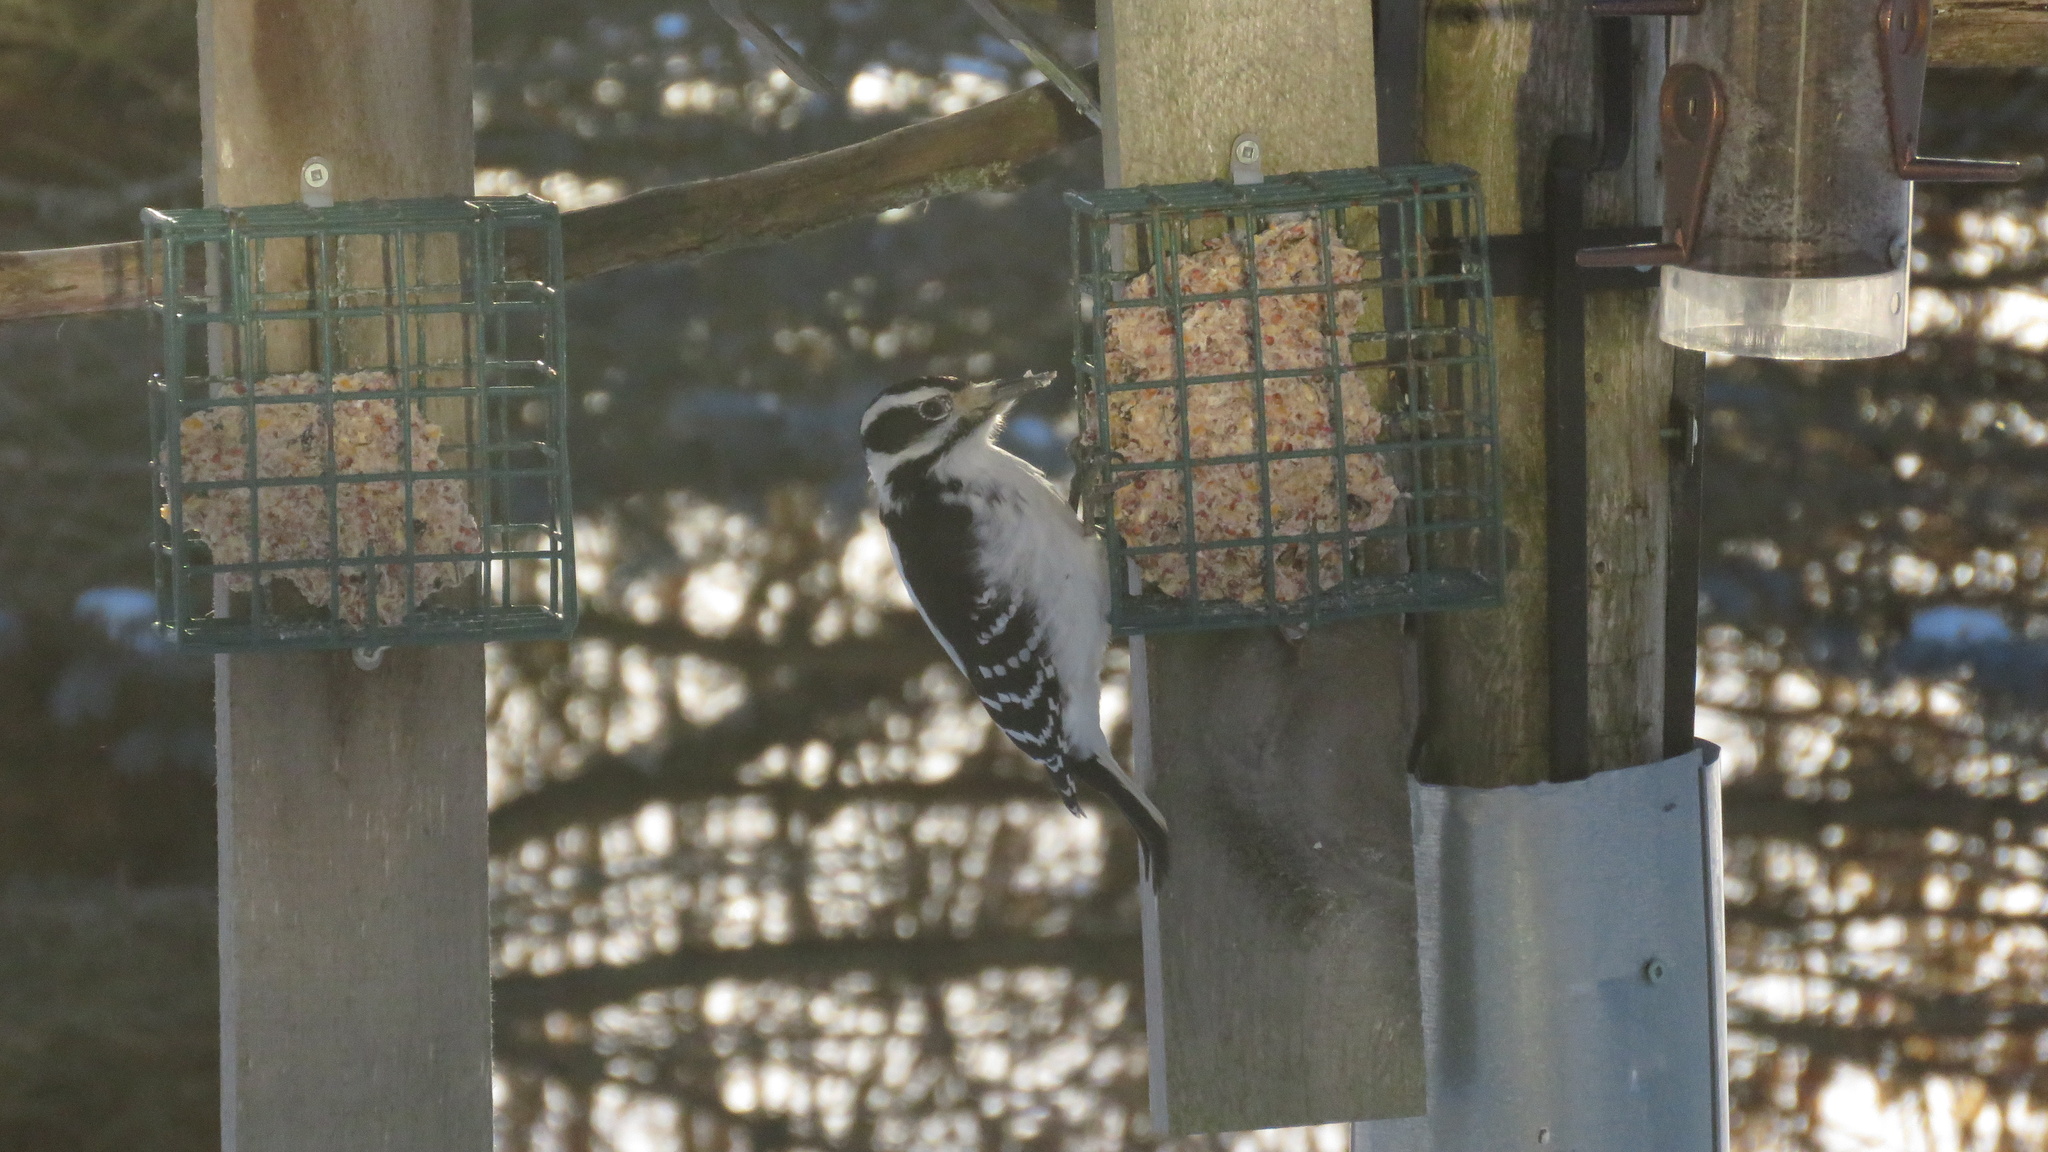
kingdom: Animalia
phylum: Chordata
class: Aves
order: Piciformes
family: Picidae
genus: Leuconotopicus
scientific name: Leuconotopicus villosus
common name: Hairy woodpecker
